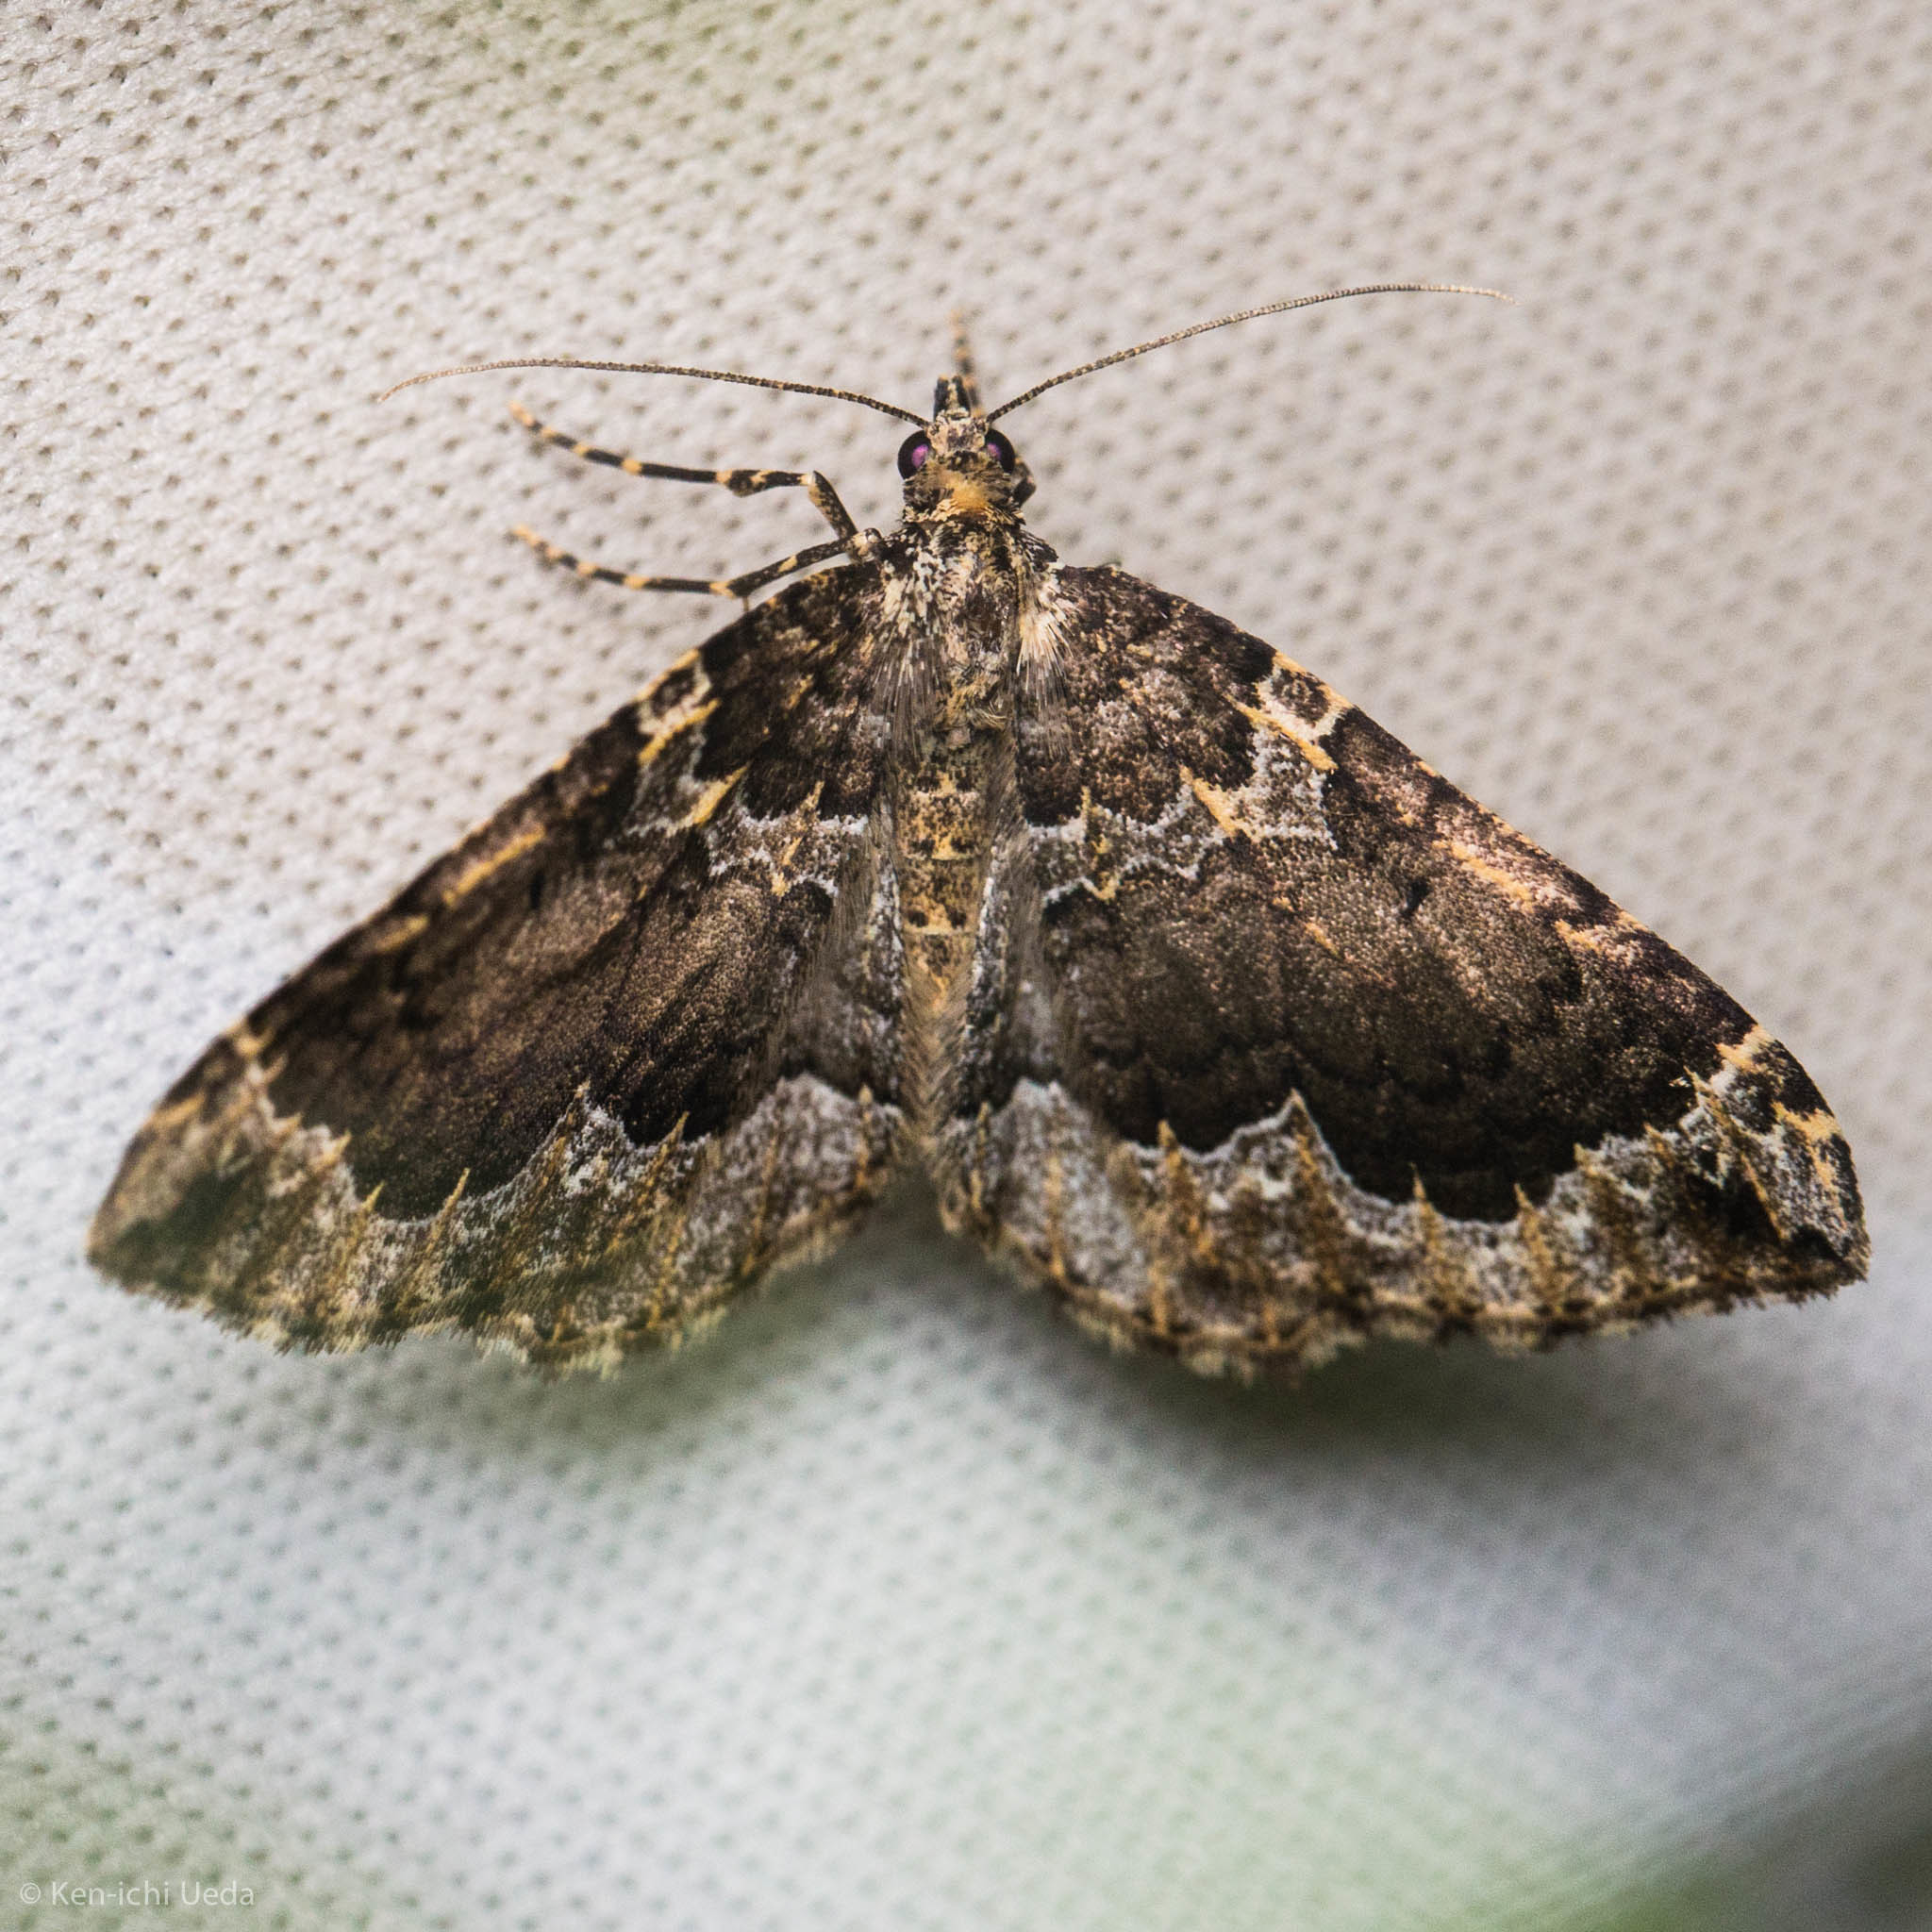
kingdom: Animalia
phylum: Arthropoda
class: Insecta
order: Lepidoptera
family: Geometridae
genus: Eustroma
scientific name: Eustroma semiatrata
